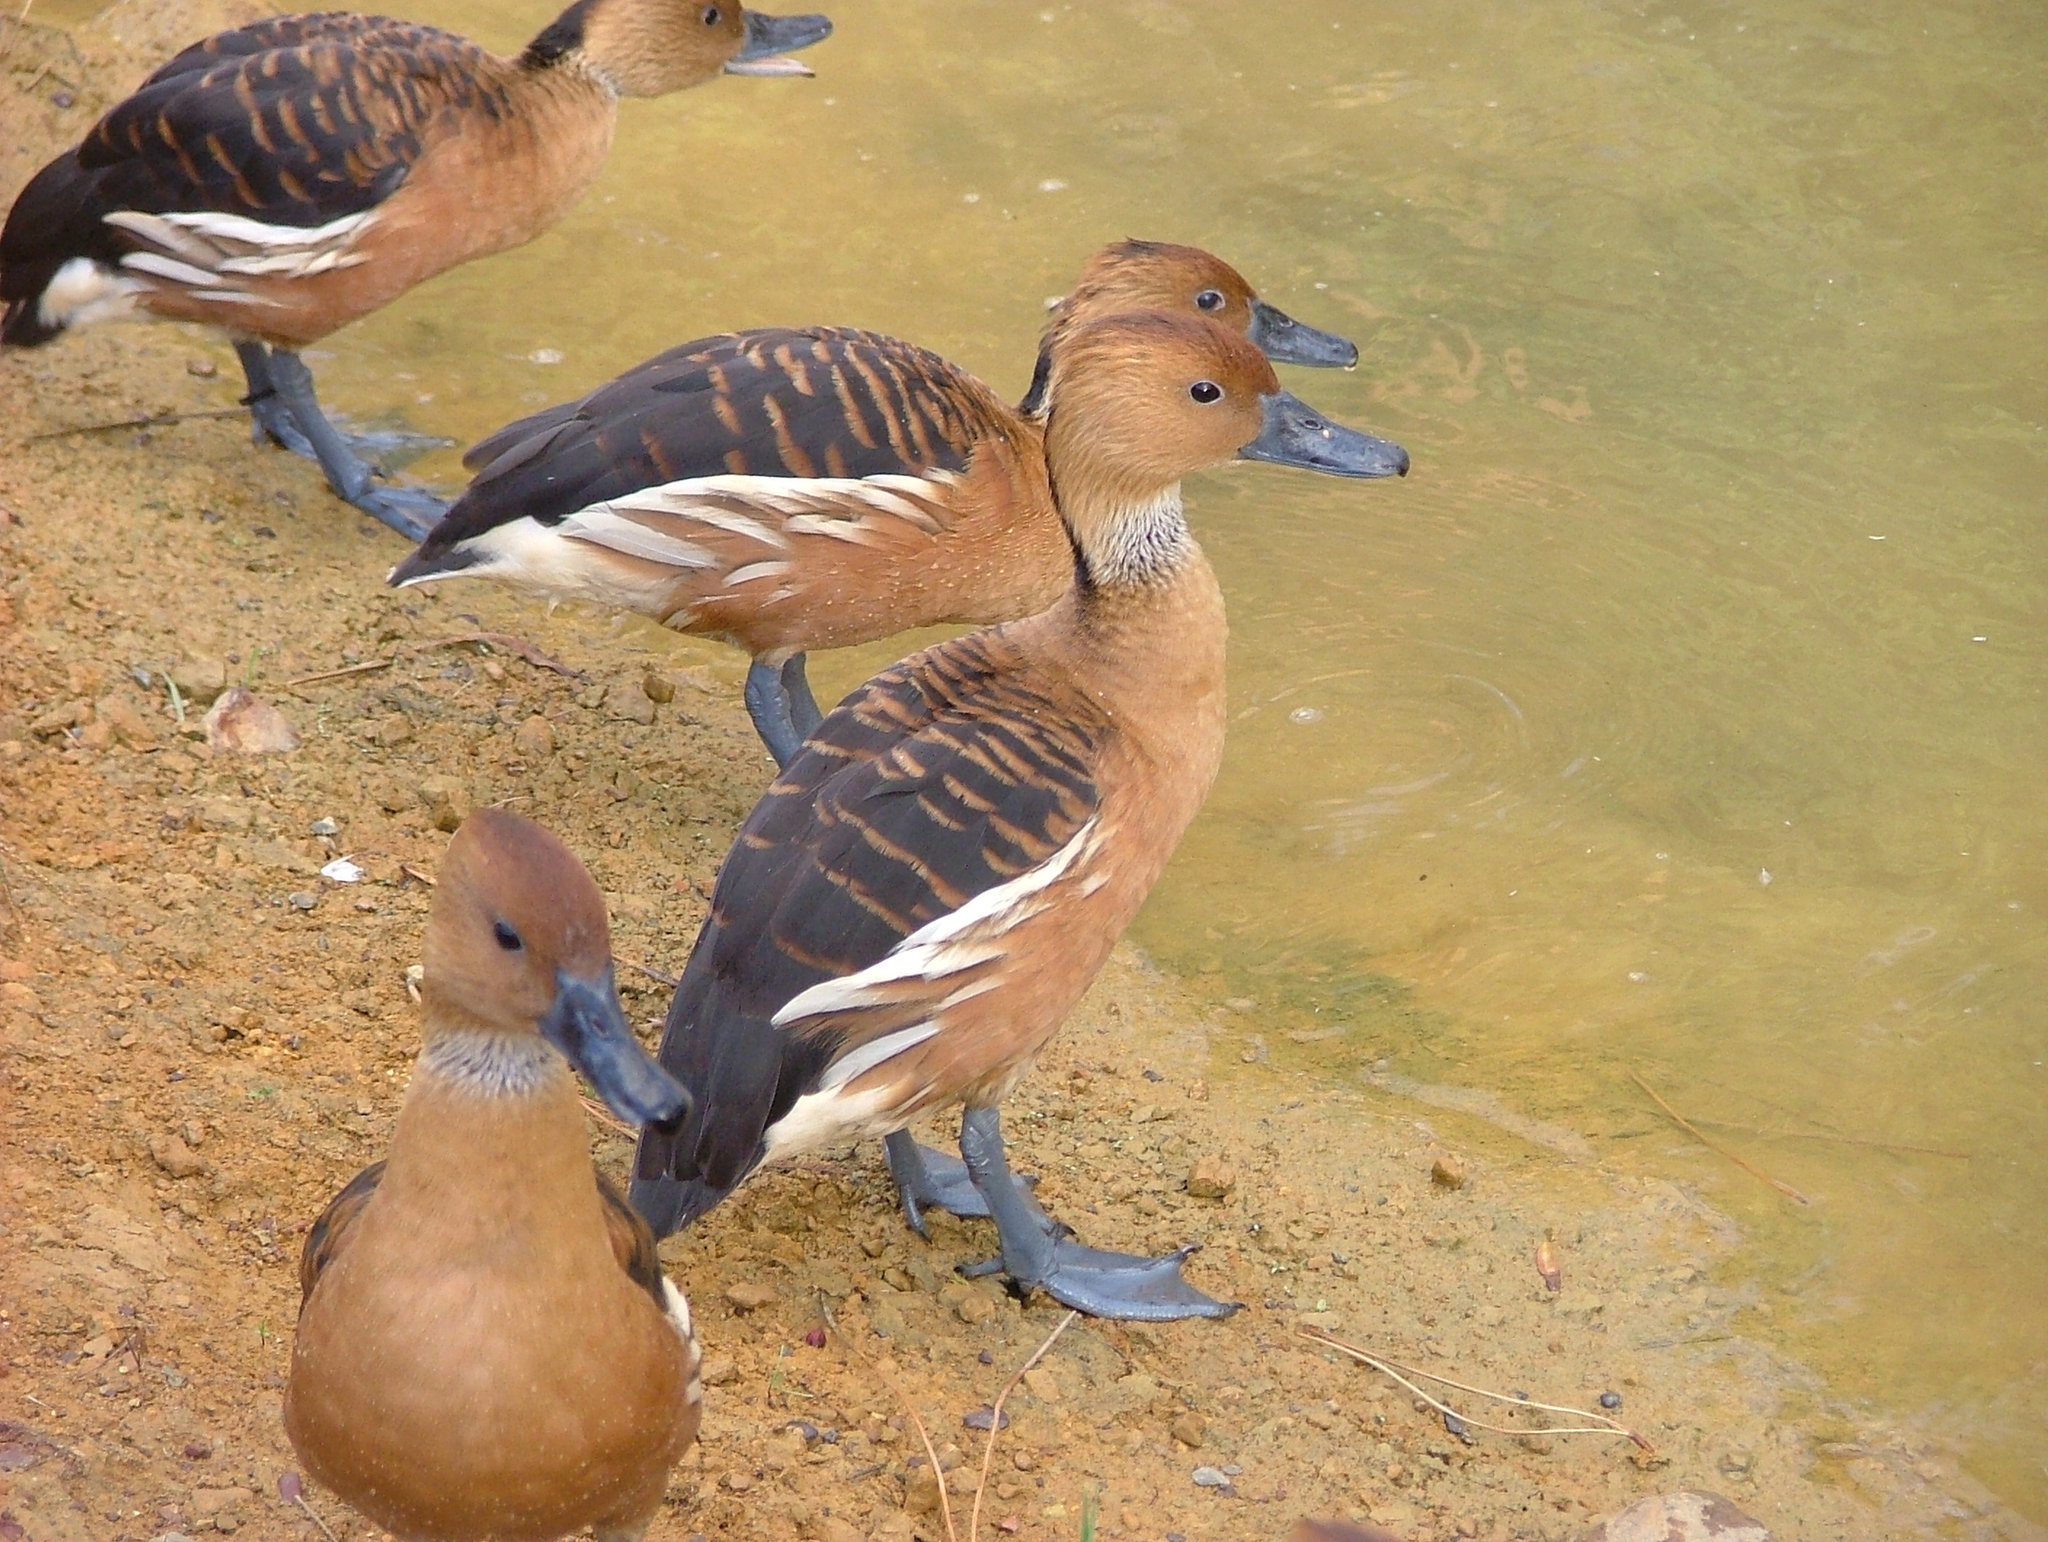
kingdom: Animalia
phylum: Chordata
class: Aves
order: Anseriformes
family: Anatidae
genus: Dendrocygna
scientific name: Dendrocygna bicolor
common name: Fulvous whistling duck
